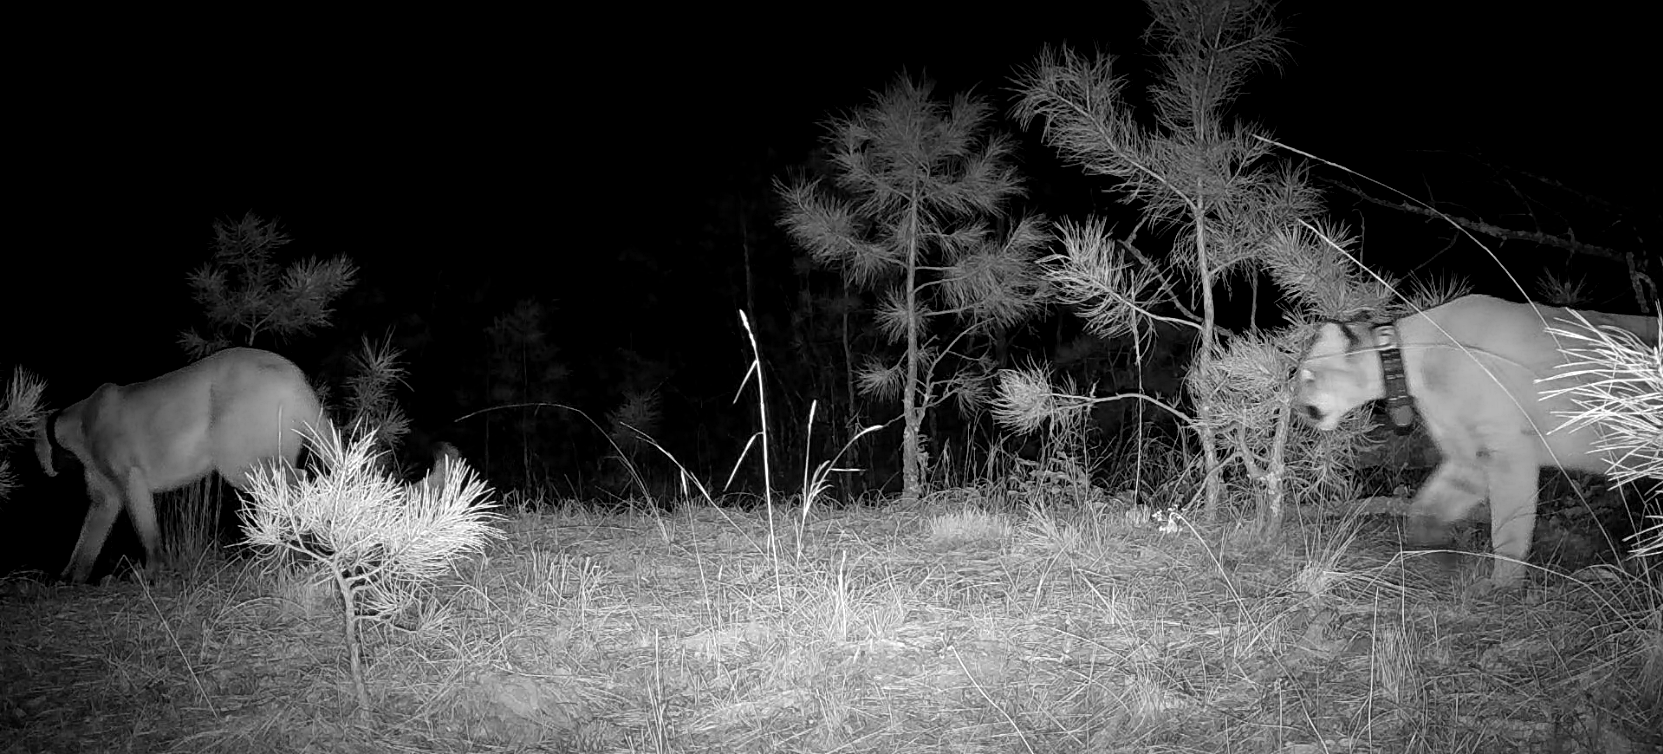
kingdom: Animalia
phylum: Chordata
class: Mammalia
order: Carnivora
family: Felidae
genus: Puma
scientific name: Puma concolor
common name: Puma
